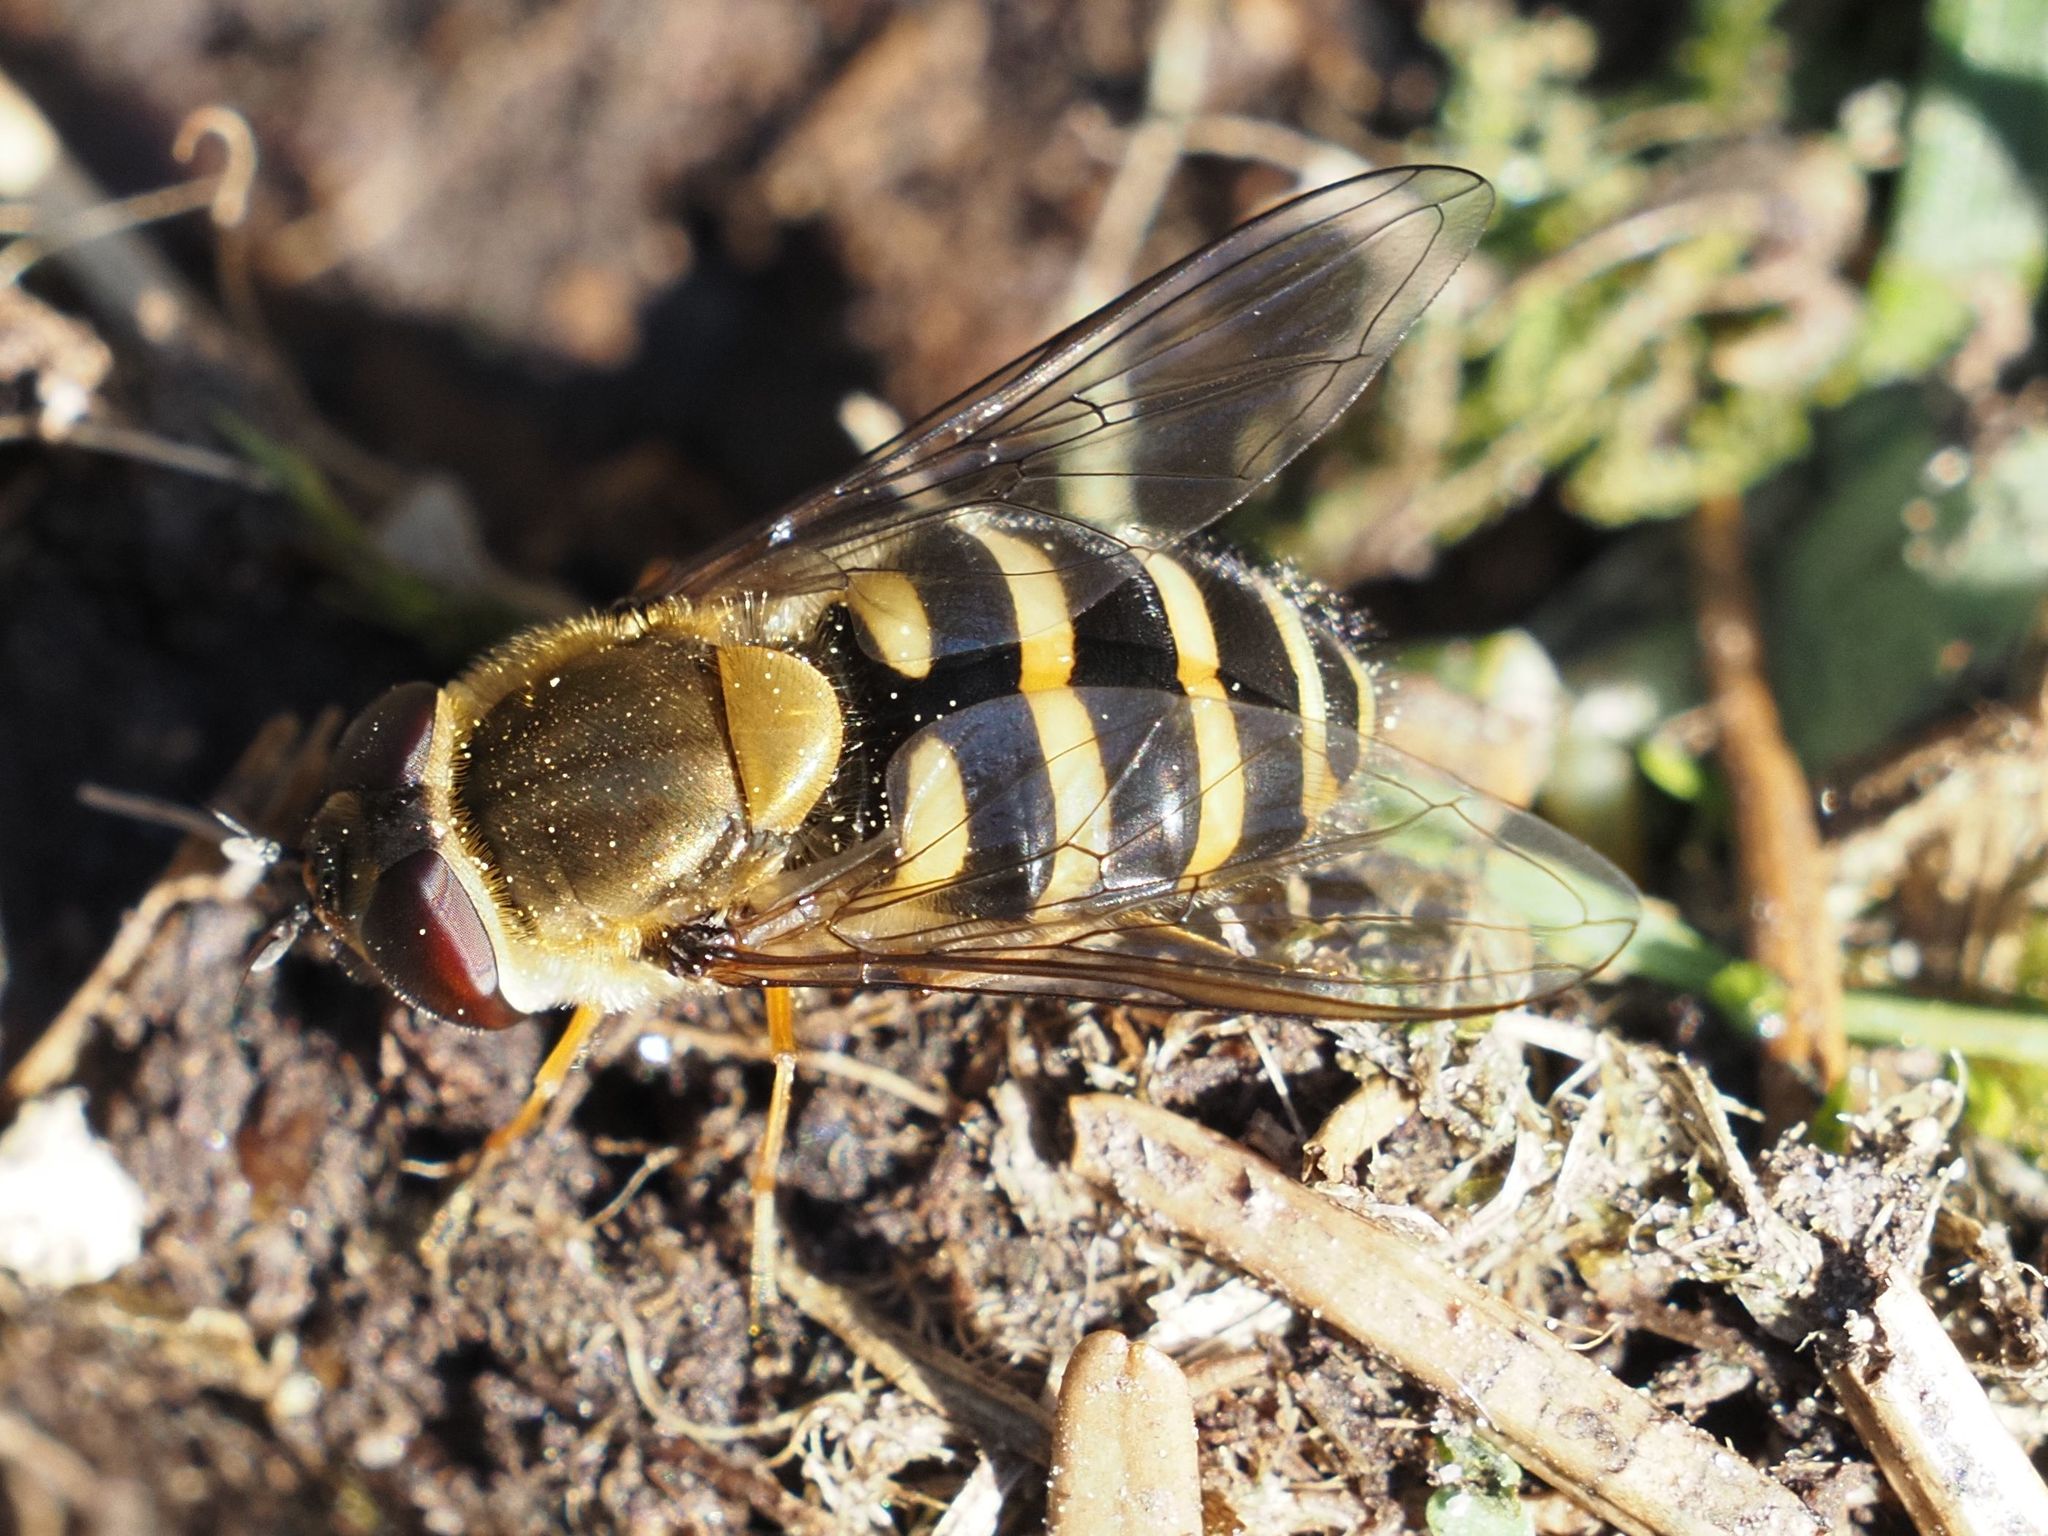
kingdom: Animalia
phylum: Arthropoda
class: Insecta
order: Diptera
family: Syrphidae
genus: Syrphus
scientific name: Syrphus torvus
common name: Hairy-eyed flower fly
